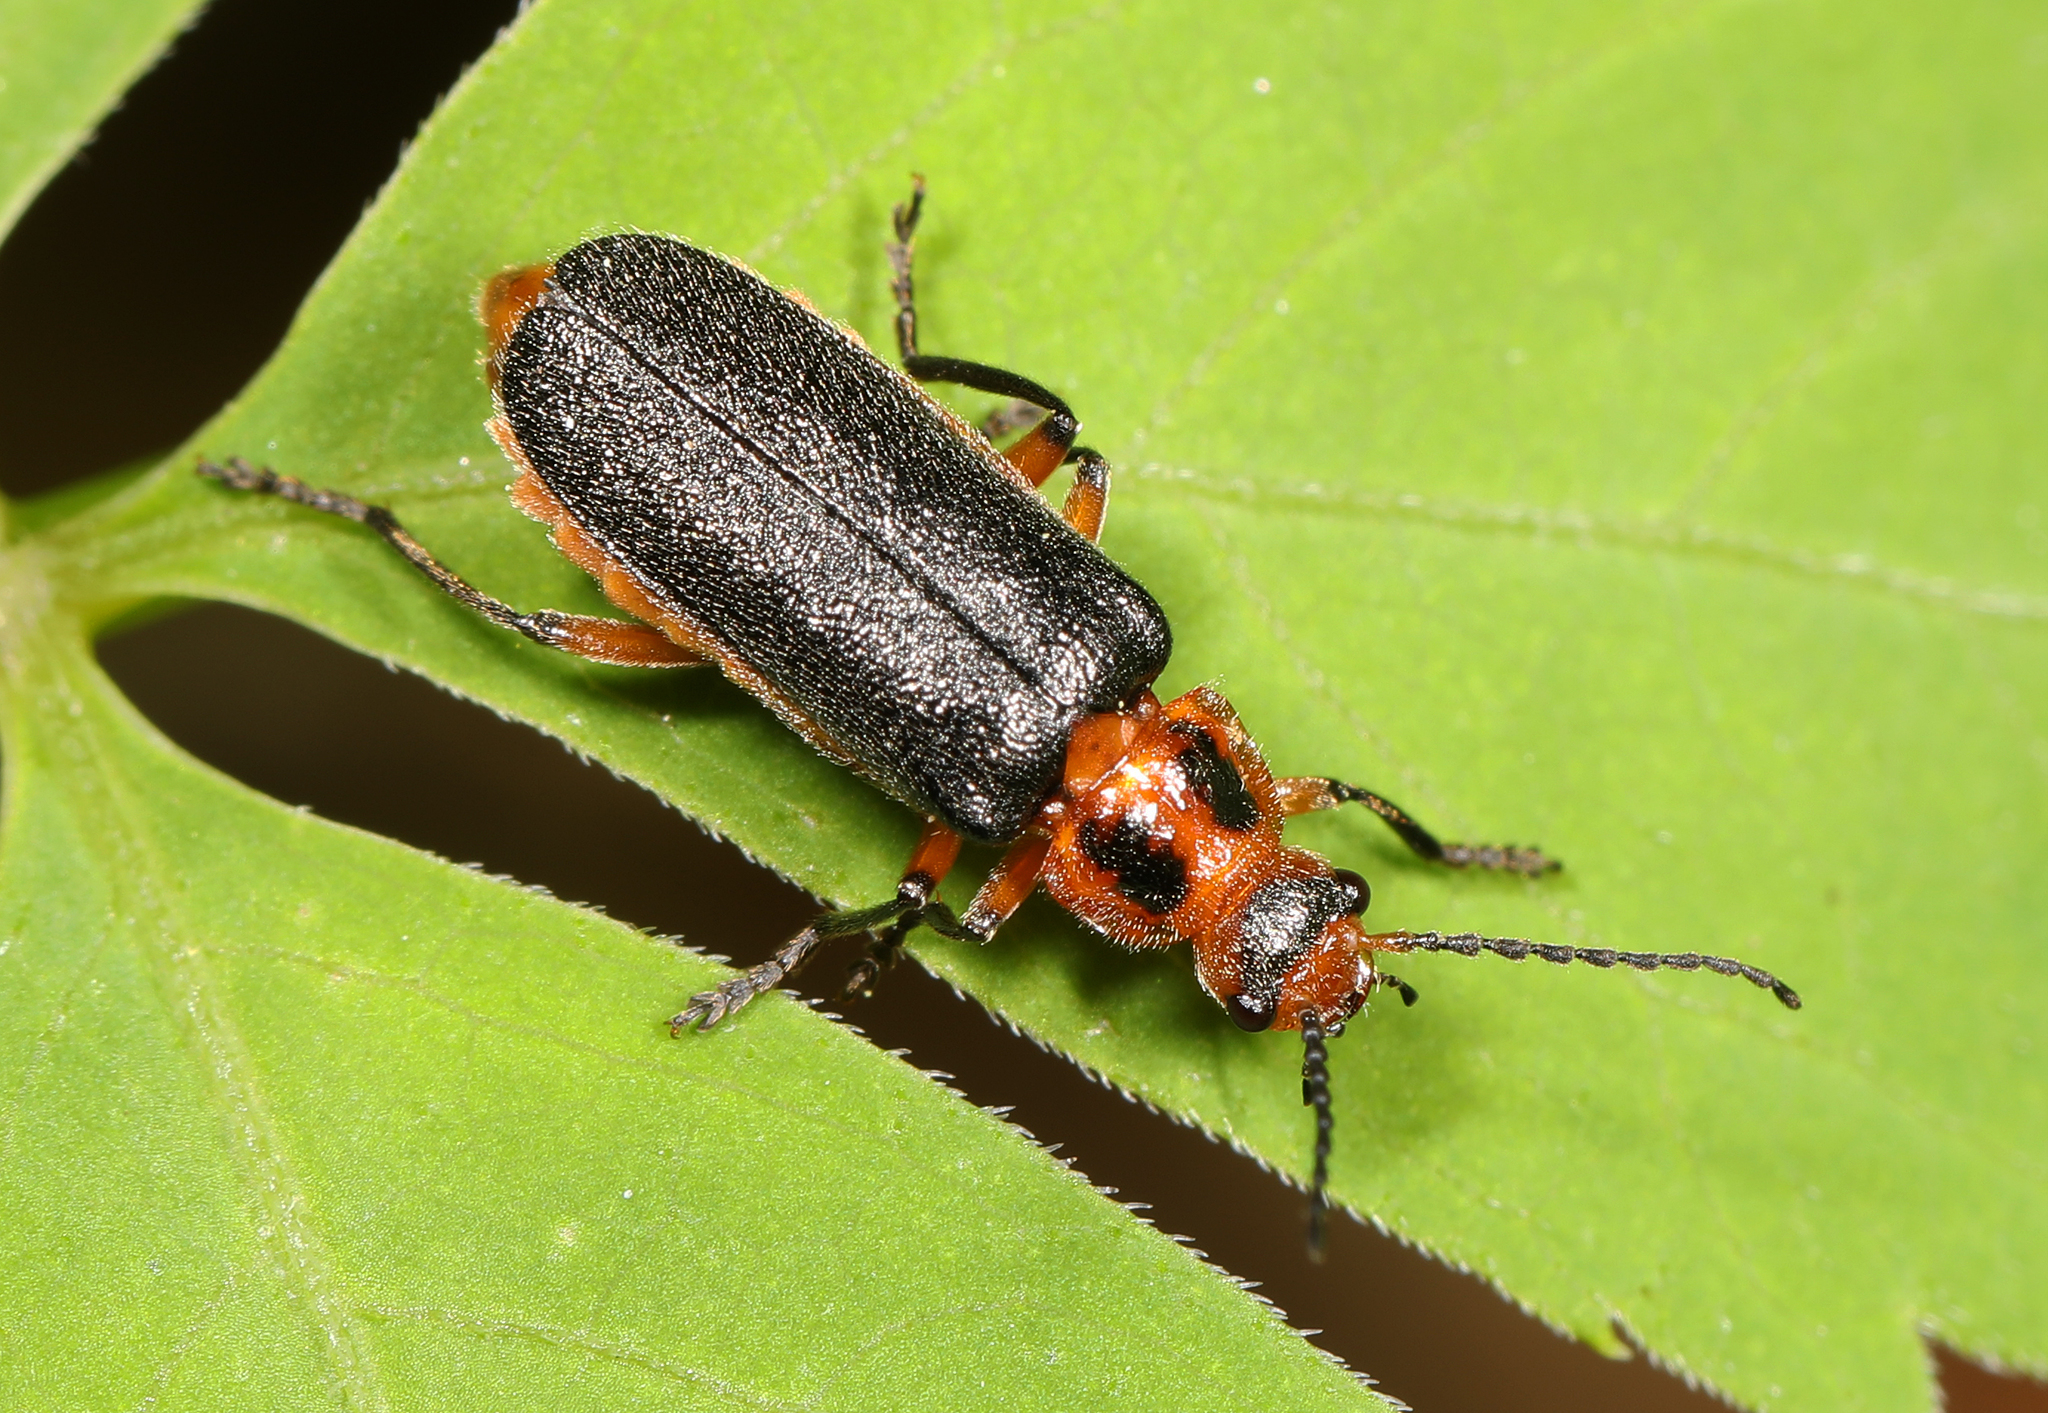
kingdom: Animalia
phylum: Arthropoda
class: Insecta
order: Coleoptera
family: Cantharidae
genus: Atalantycha
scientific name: Atalantycha bilineata
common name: Two-lined leatherwing
